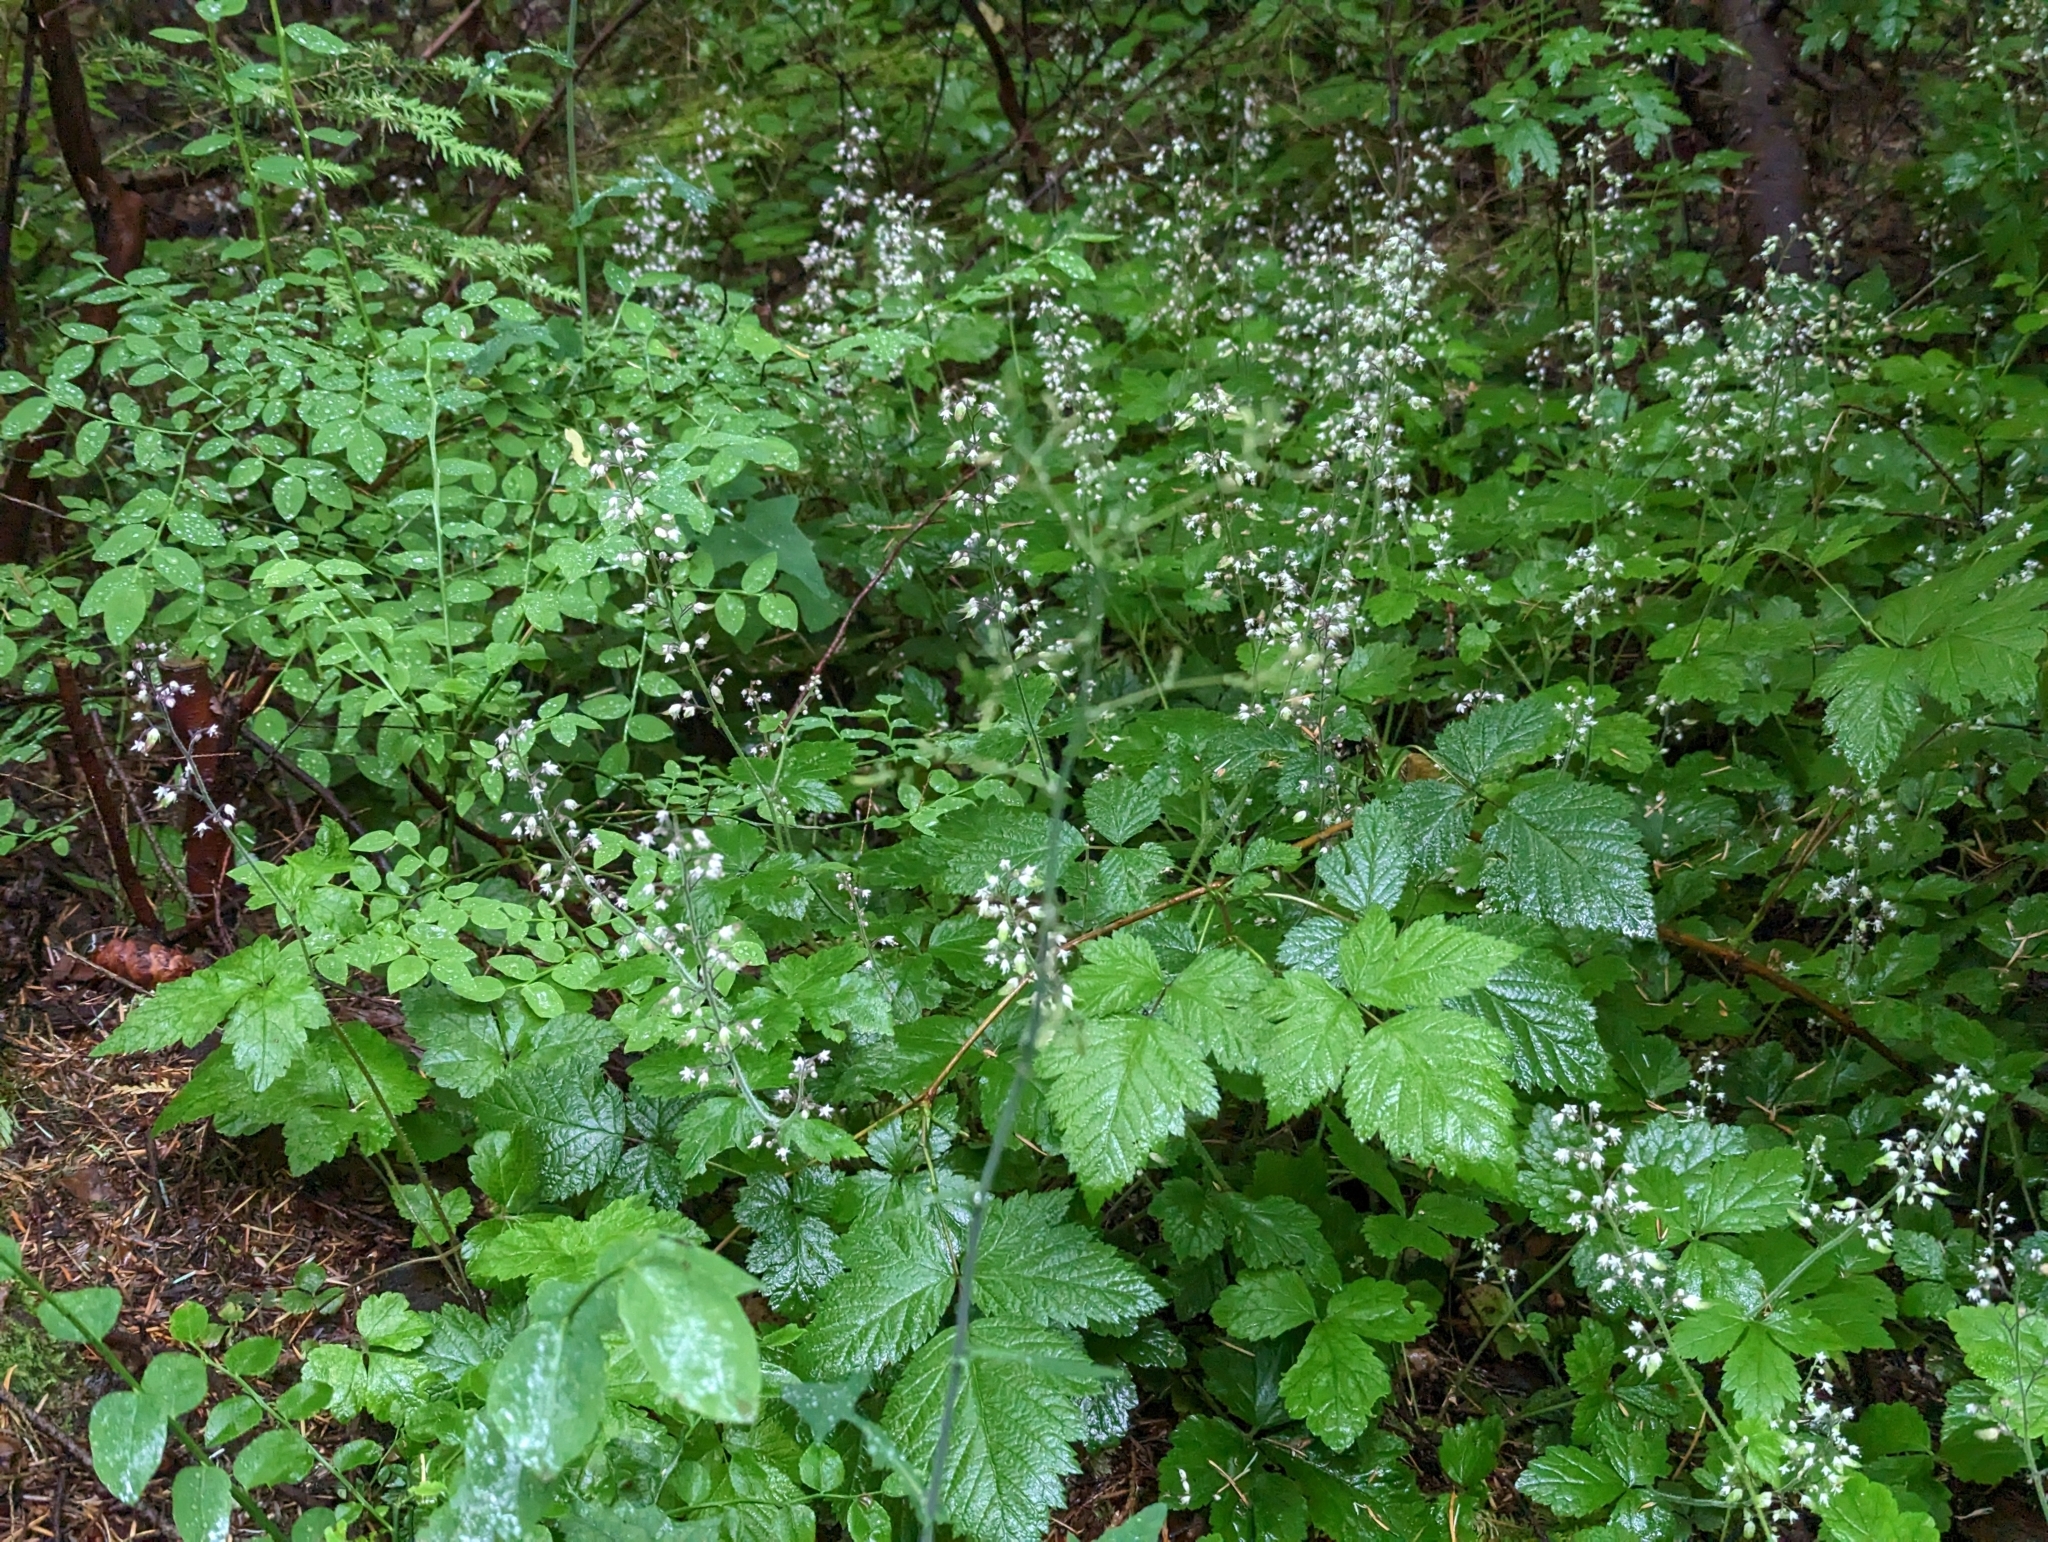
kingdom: Plantae
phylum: Tracheophyta
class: Magnoliopsida
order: Saxifragales
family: Saxifragaceae
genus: Tiarella
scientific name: Tiarella trifoliata
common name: Sugar-scoop
